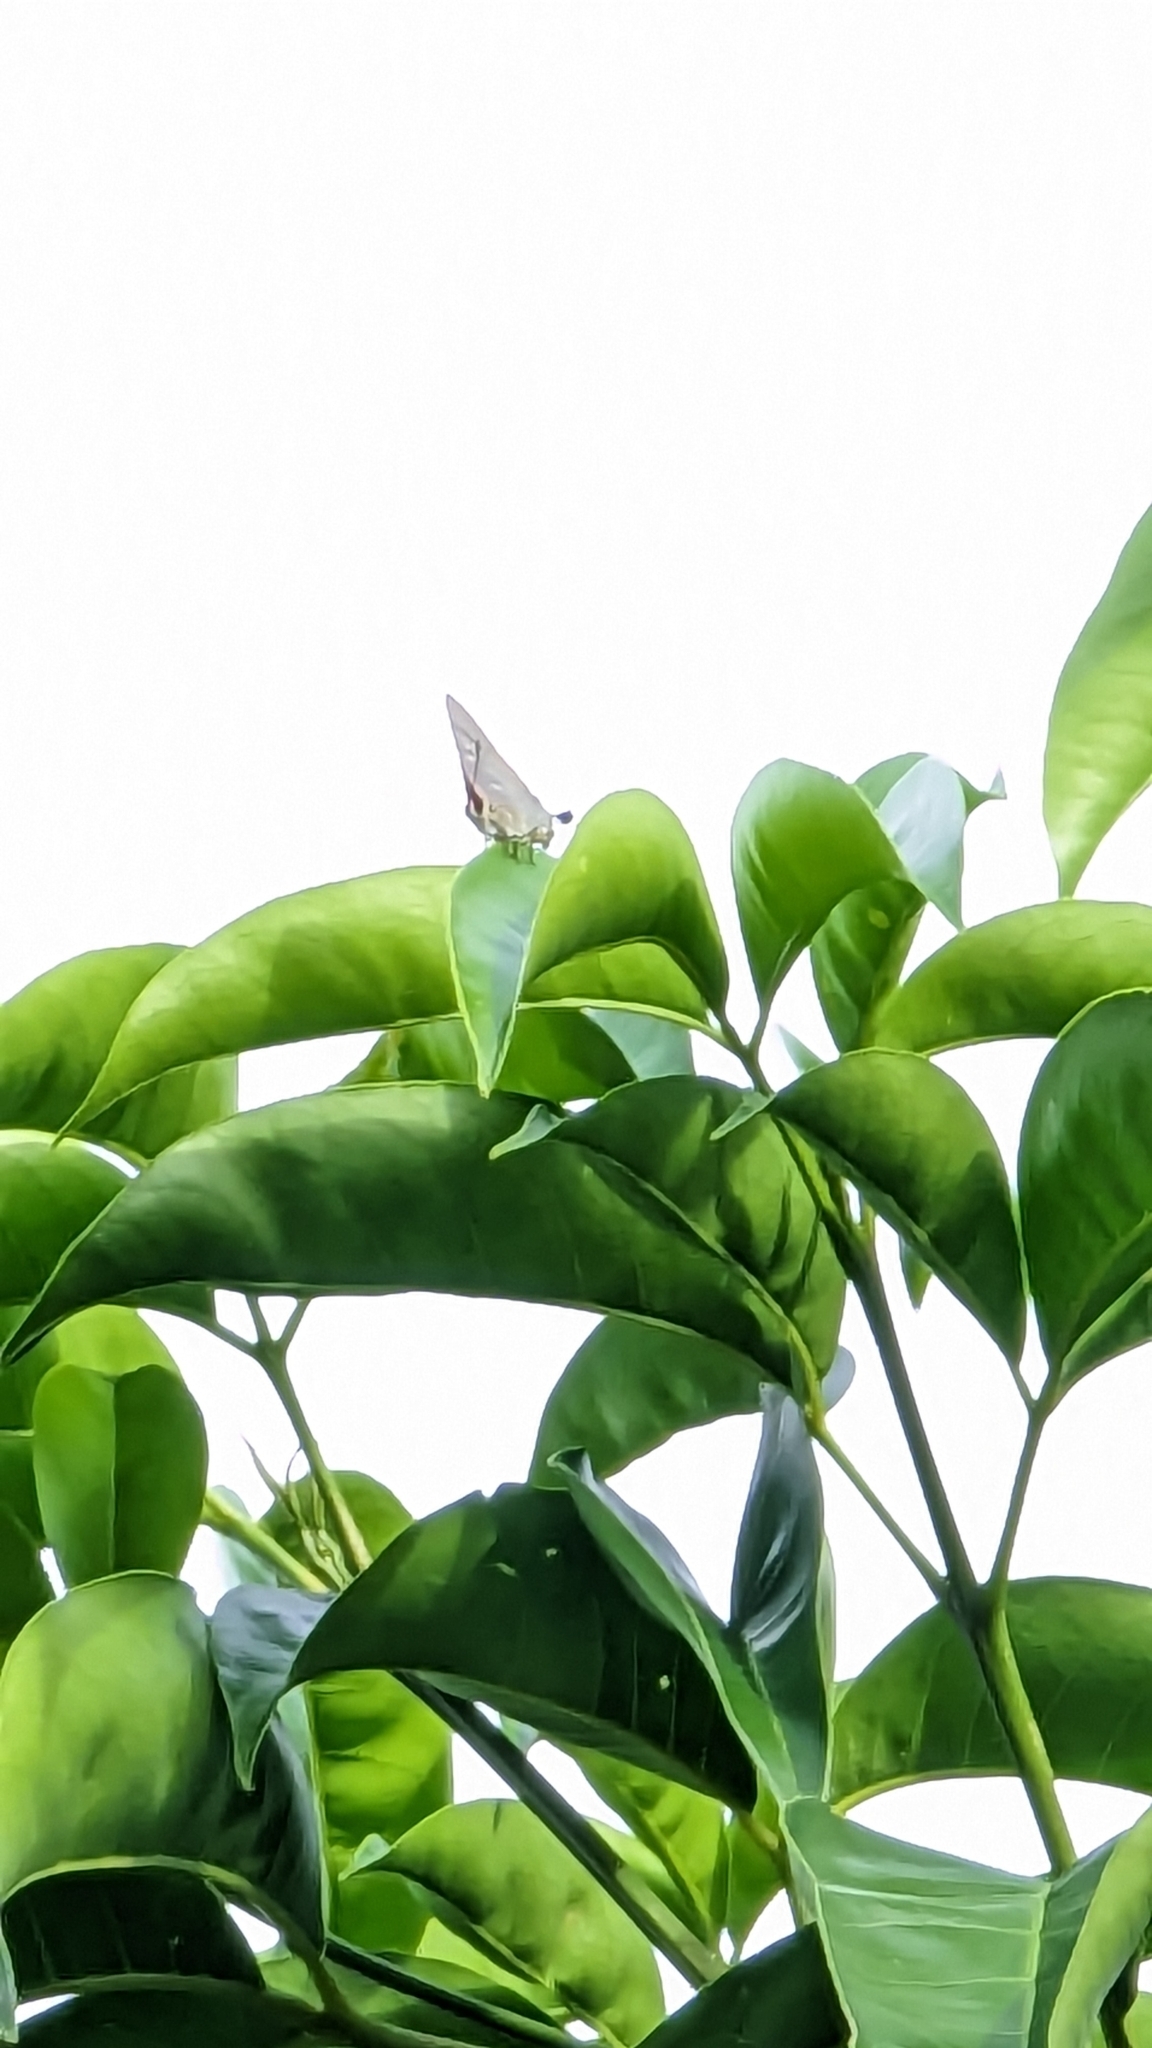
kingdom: Animalia
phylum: Arthropoda
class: Insecta
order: Lepidoptera
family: Lycaenidae
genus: Deudorix
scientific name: Deudorix diovis
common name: Bright cornelian
